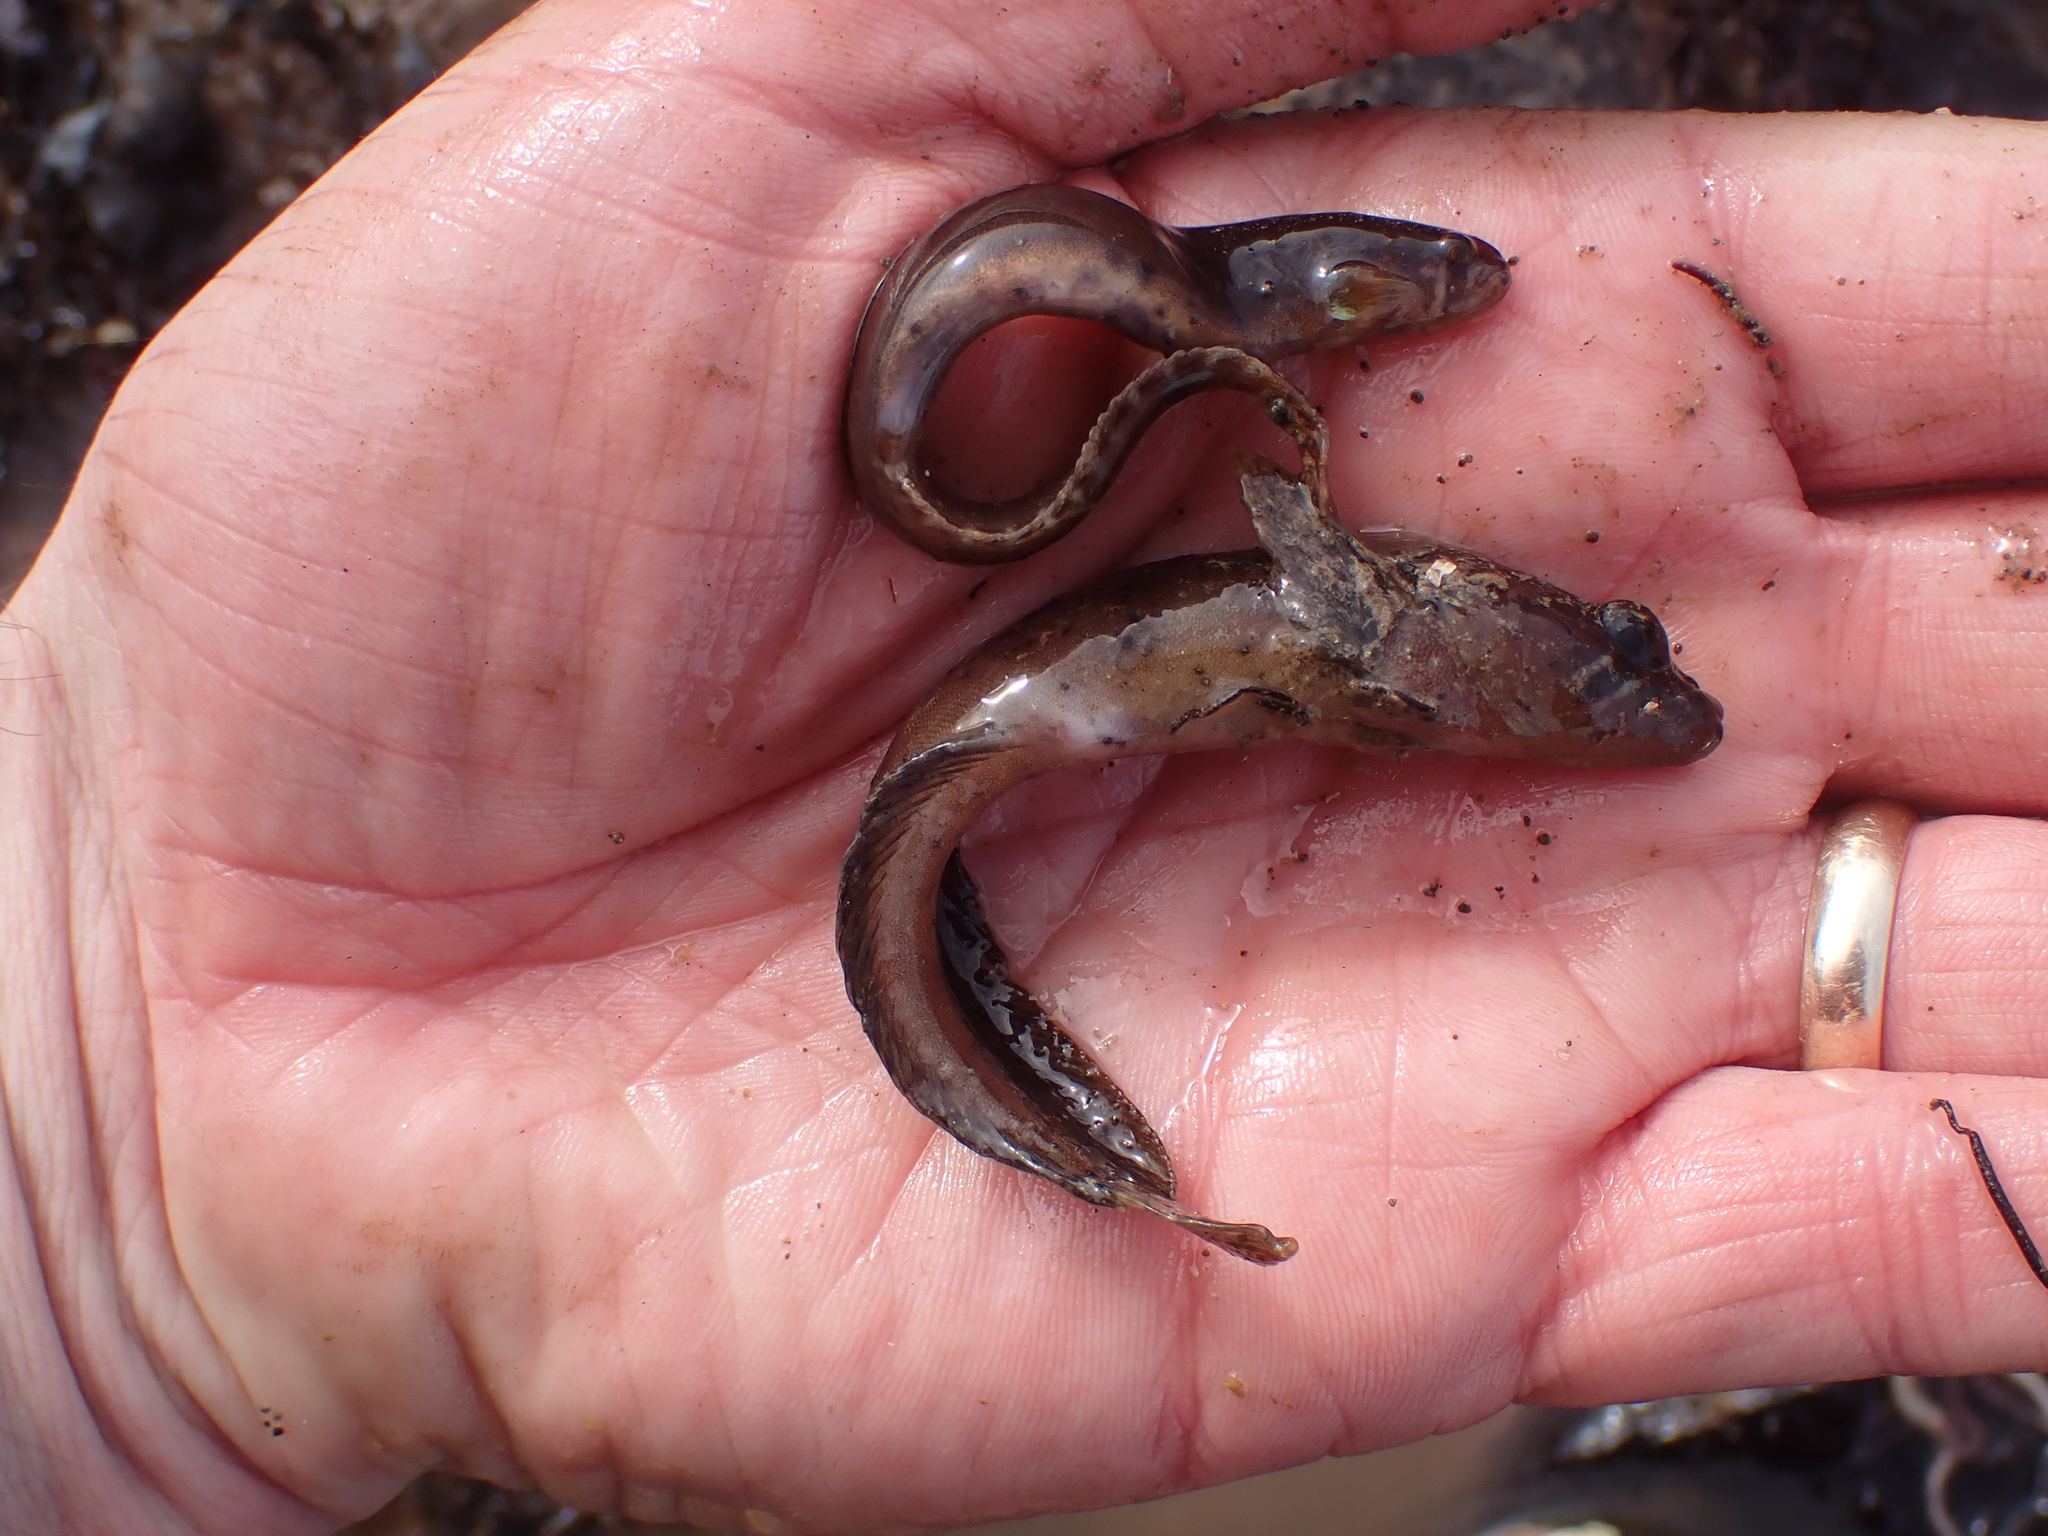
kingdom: Animalia
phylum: Chordata
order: Perciformes
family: Pholidae
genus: Pholis
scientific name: Pholis gunnellus
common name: Butterfish
